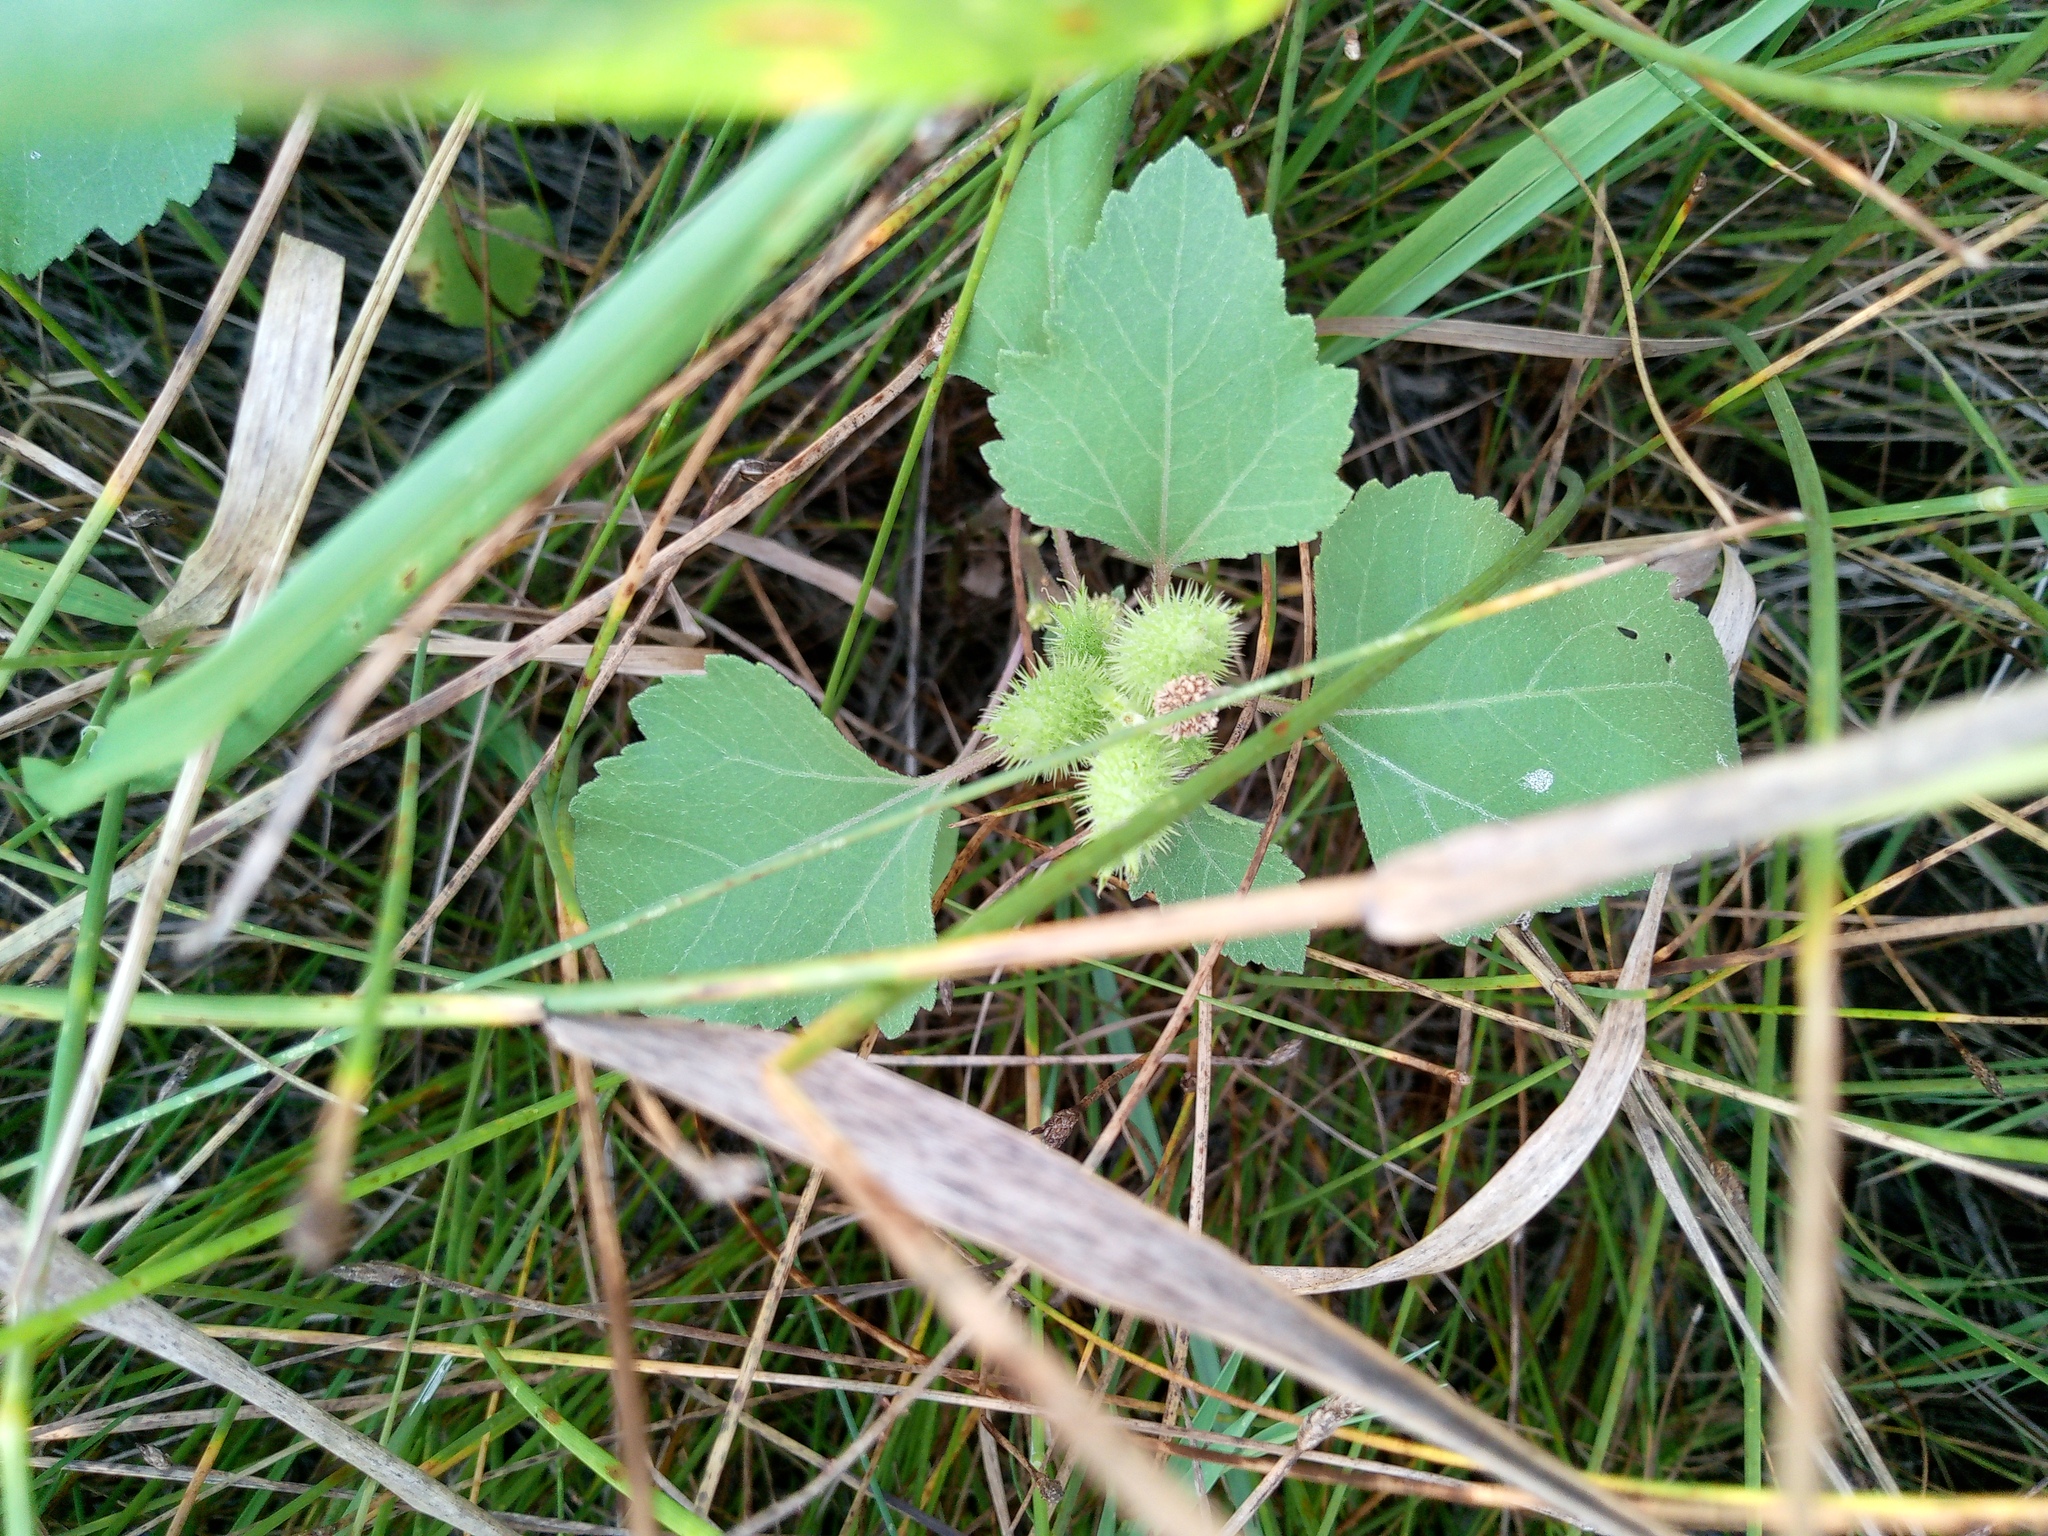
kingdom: Plantae
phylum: Tracheophyta
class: Magnoliopsida
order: Asterales
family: Asteraceae
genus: Xanthium
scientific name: Xanthium orientale
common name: Californian burr
